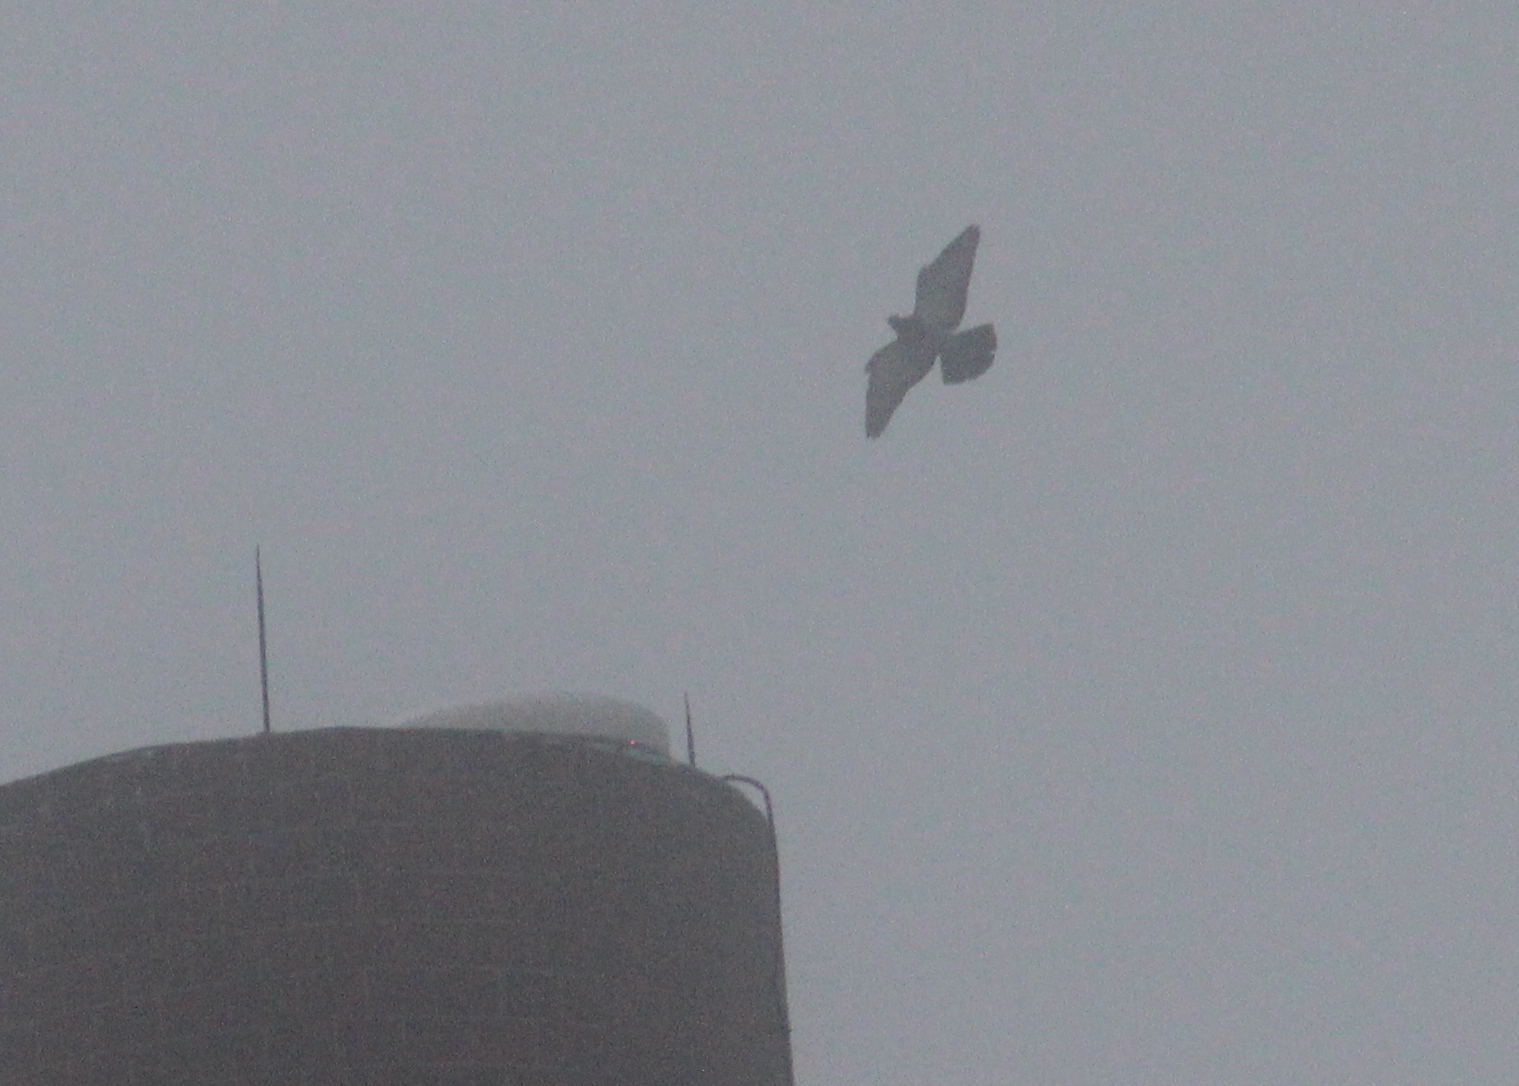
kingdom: Animalia
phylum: Chordata
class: Aves
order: Columbiformes
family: Columbidae
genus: Columba
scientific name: Columba livia
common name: Rock pigeon
